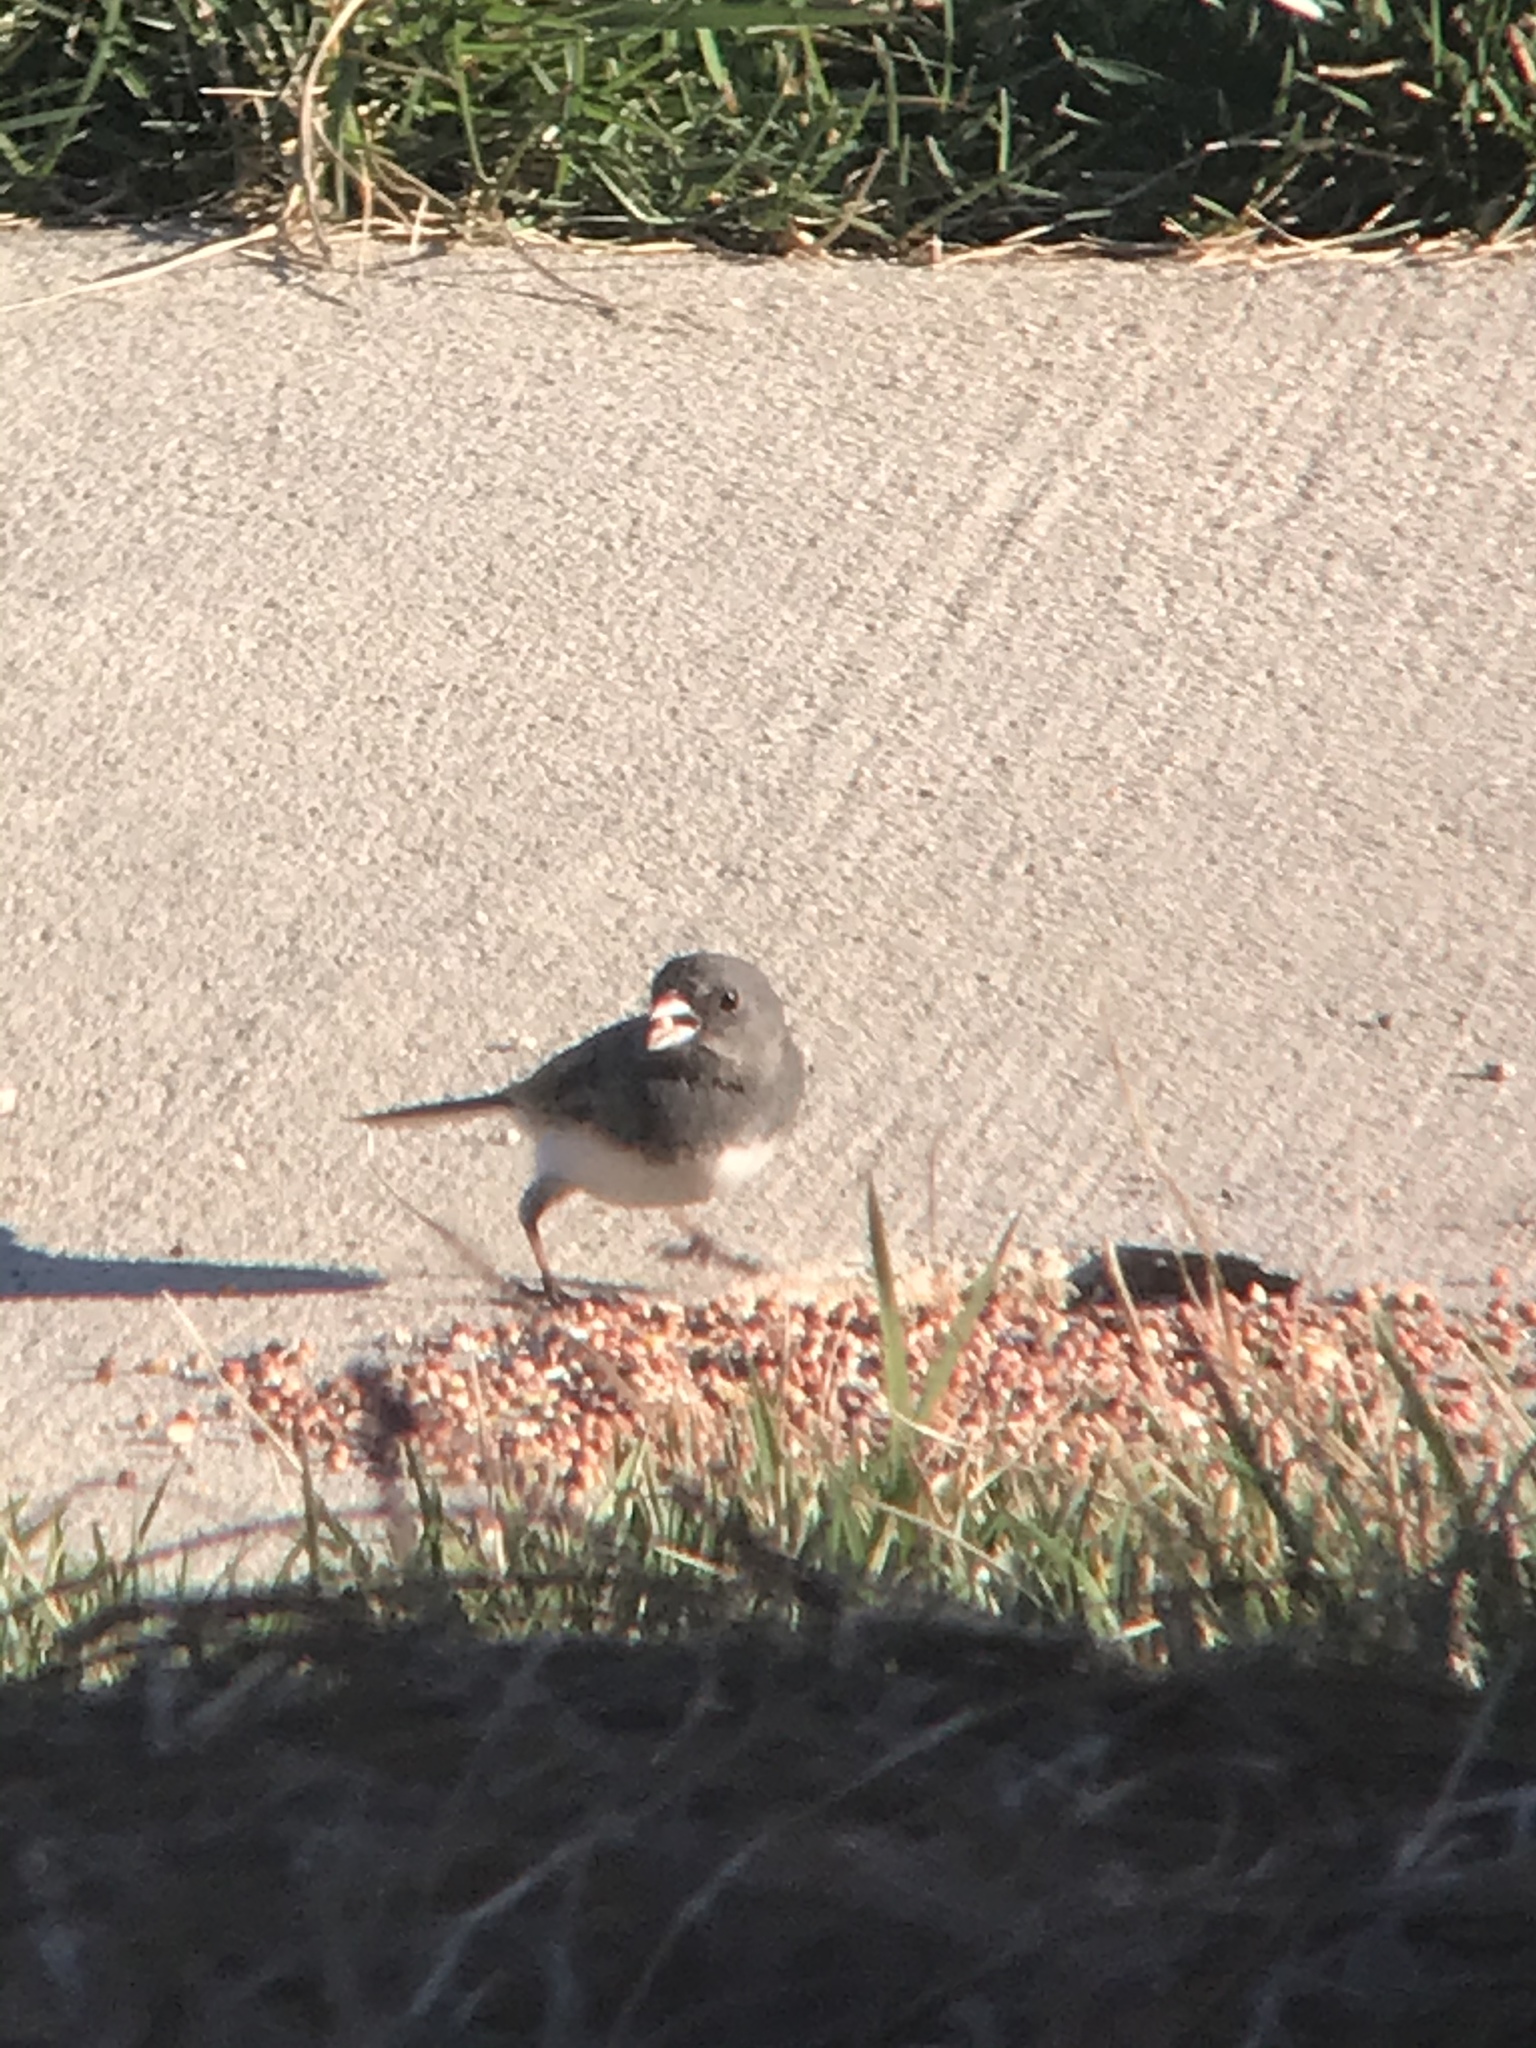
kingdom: Animalia
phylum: Chordata
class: Aves
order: Passeriformes
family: Passerellidae
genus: Junco
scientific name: Junco hyemalis
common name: Dark-eyed junco
